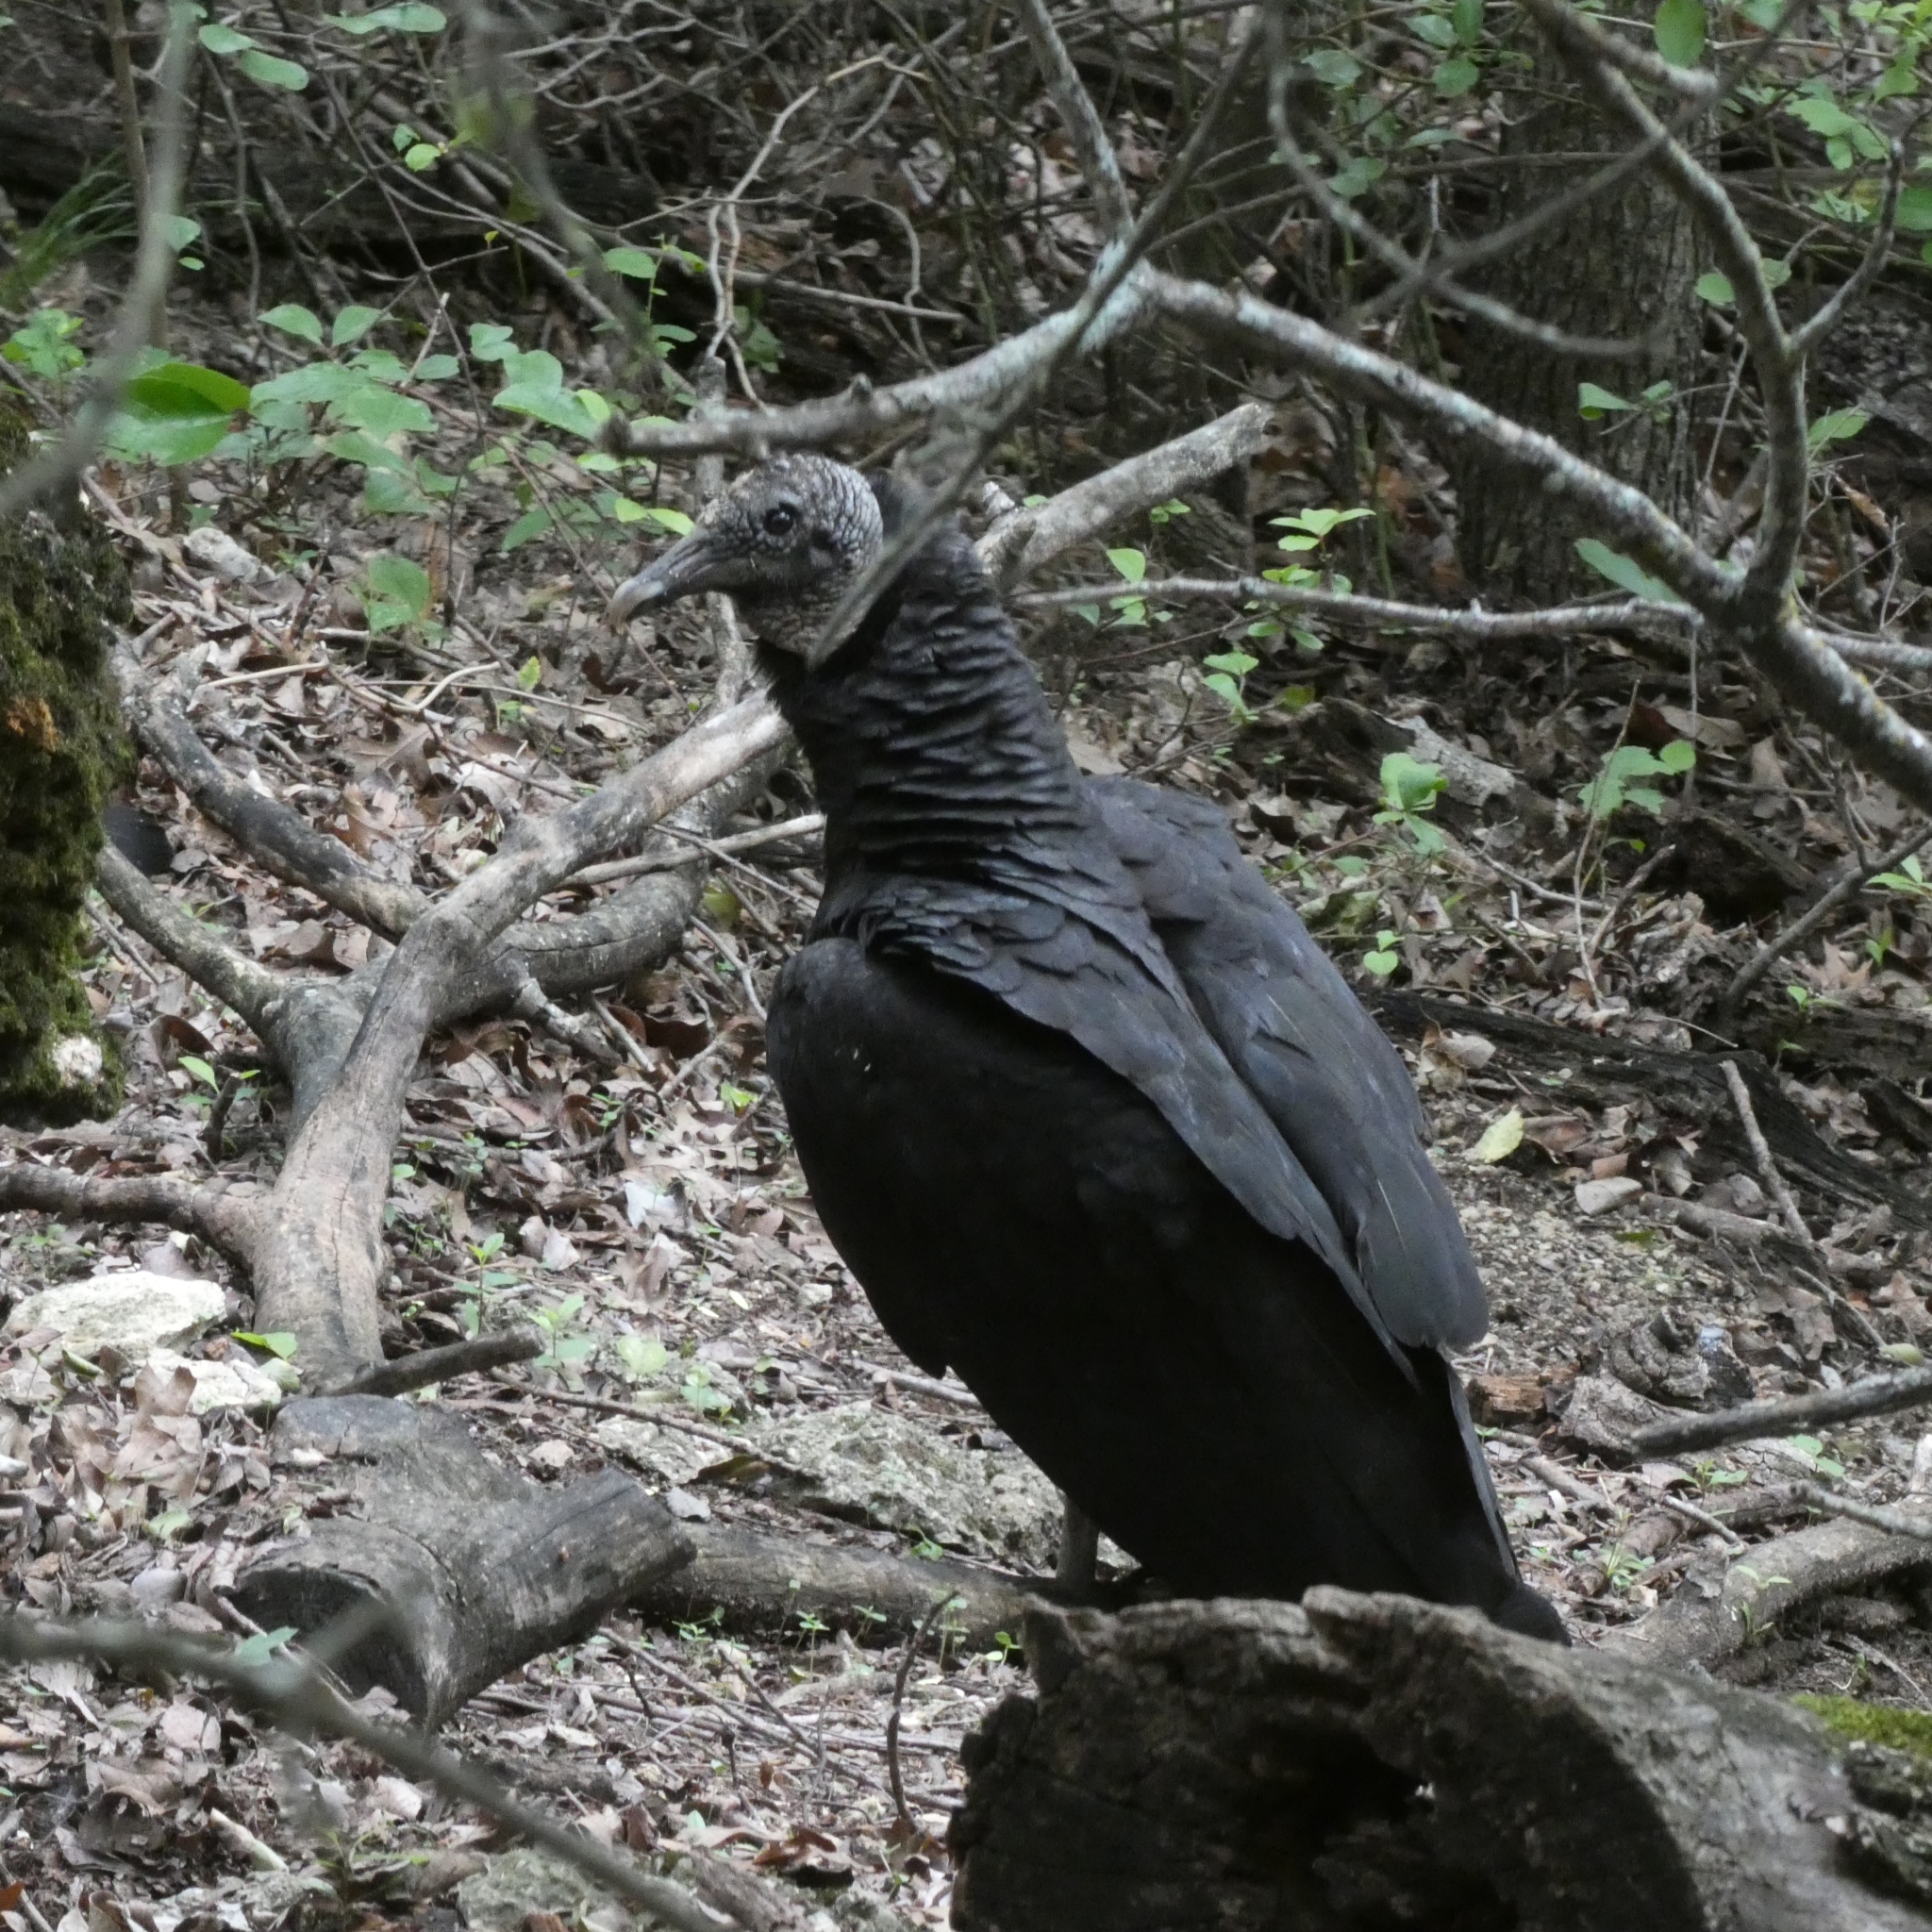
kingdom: Animalia
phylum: Chordata
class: Aves
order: Accipitriformes
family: Cathartidae
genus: Coragyps
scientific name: Coragyps atratus
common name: Black vulture
